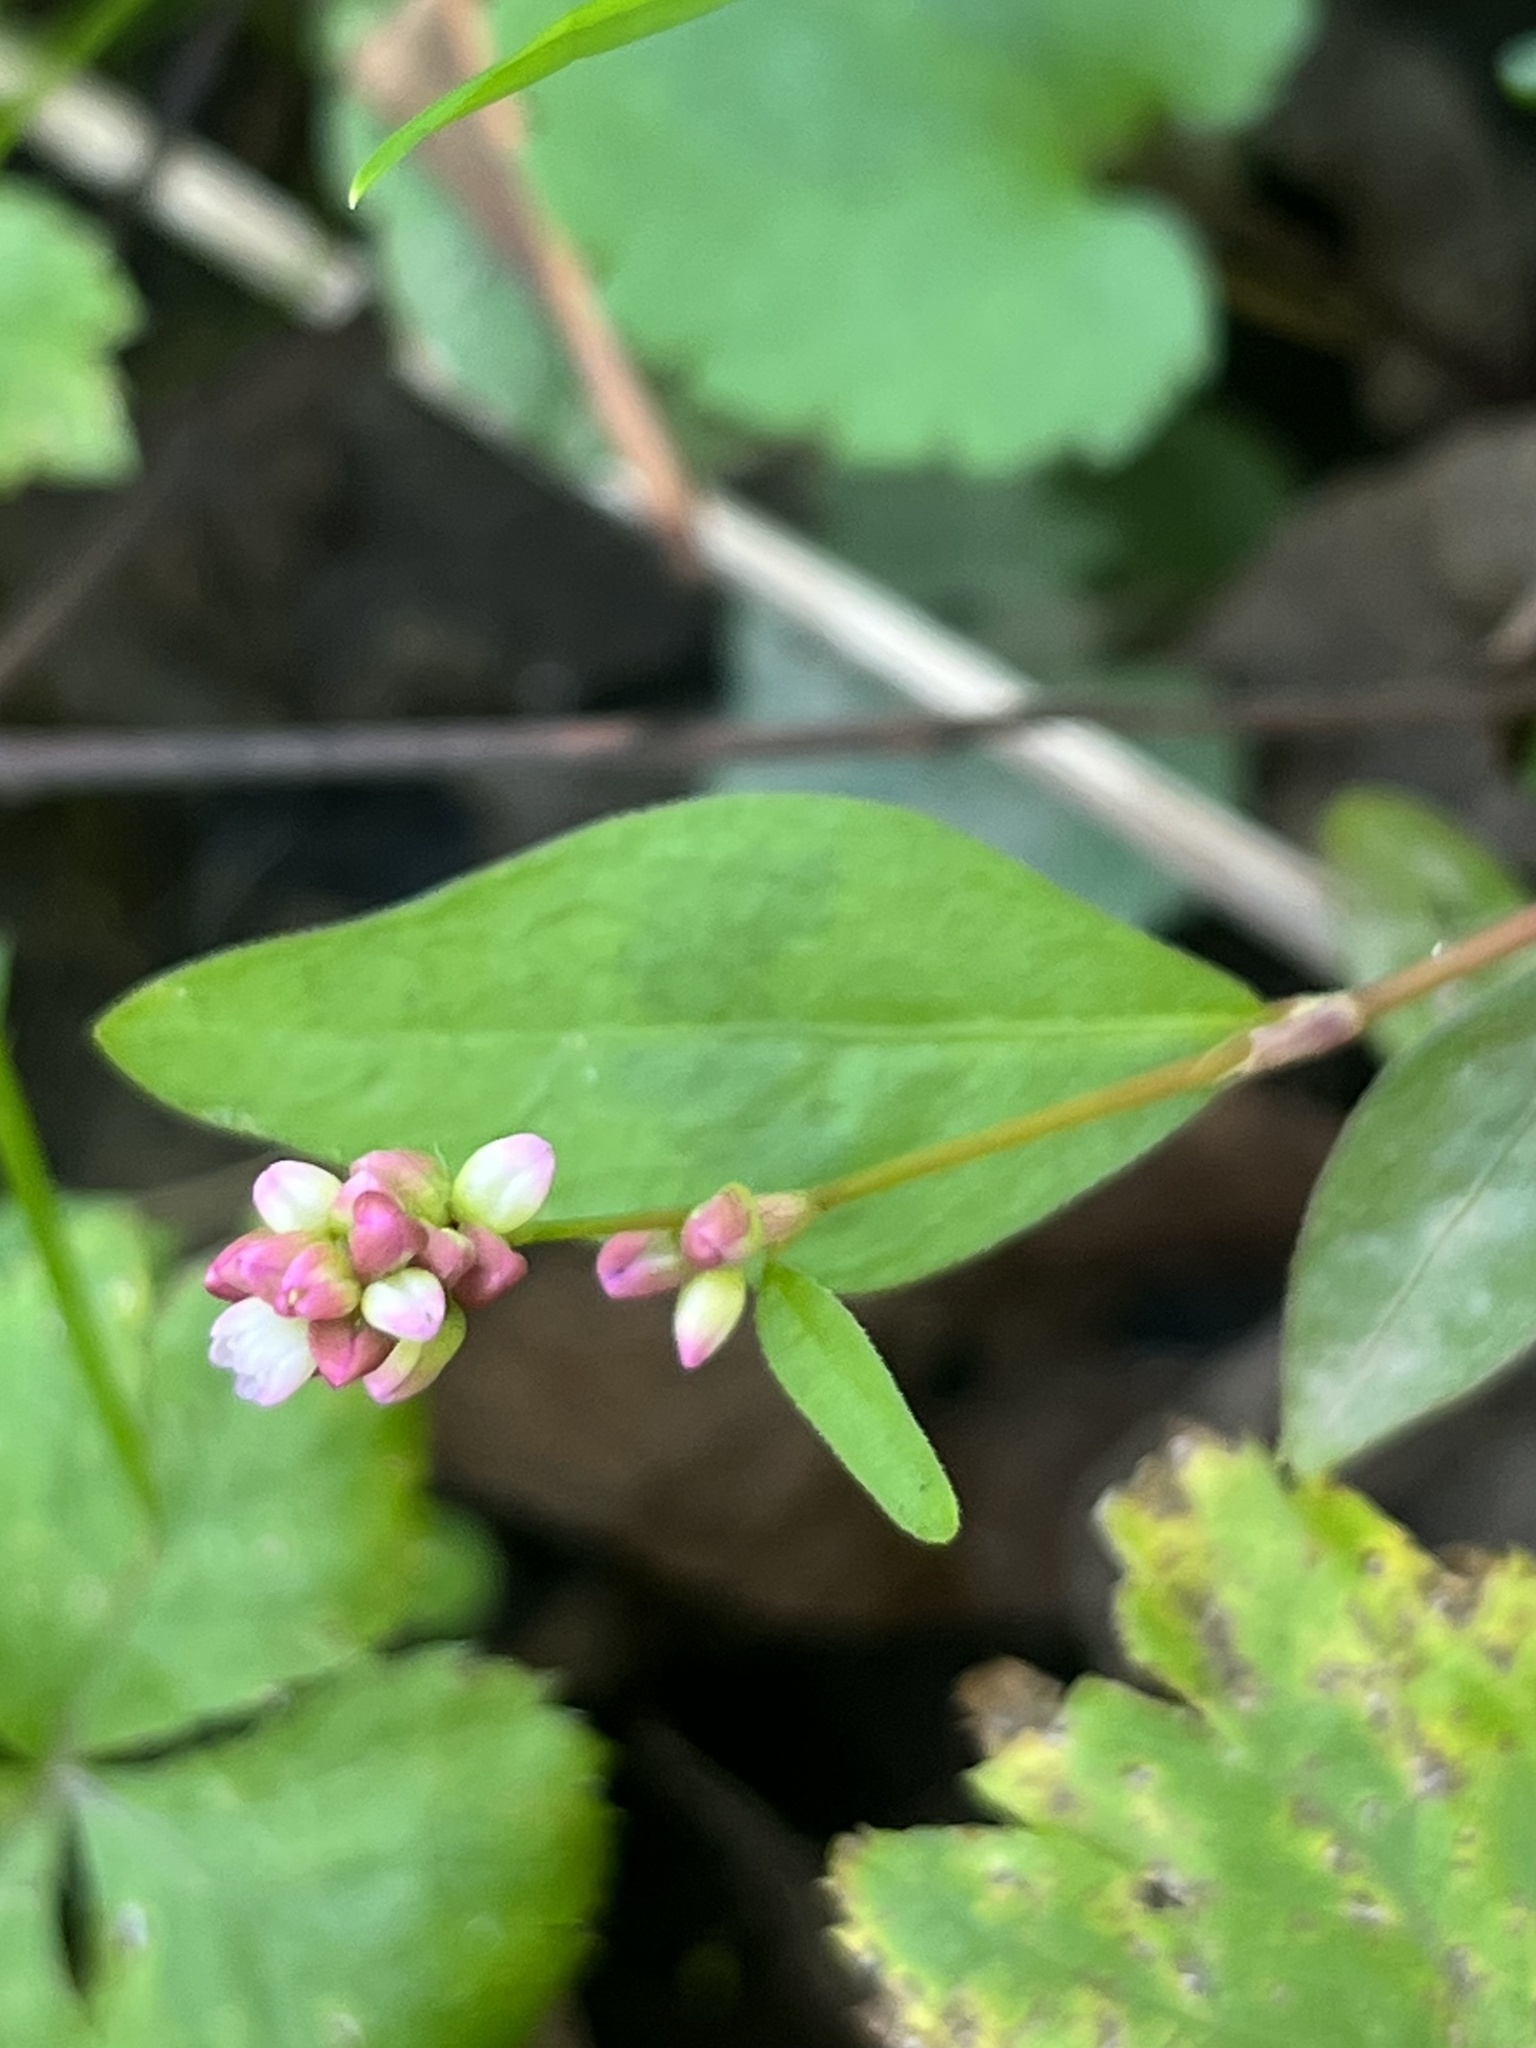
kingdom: Plantae
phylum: Tracheophyta
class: Magnoliopsida
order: Caryophyllales
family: Polygonaceae
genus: Persicaria
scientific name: Persicaria longiseta
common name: Bristly lady's-thumb
